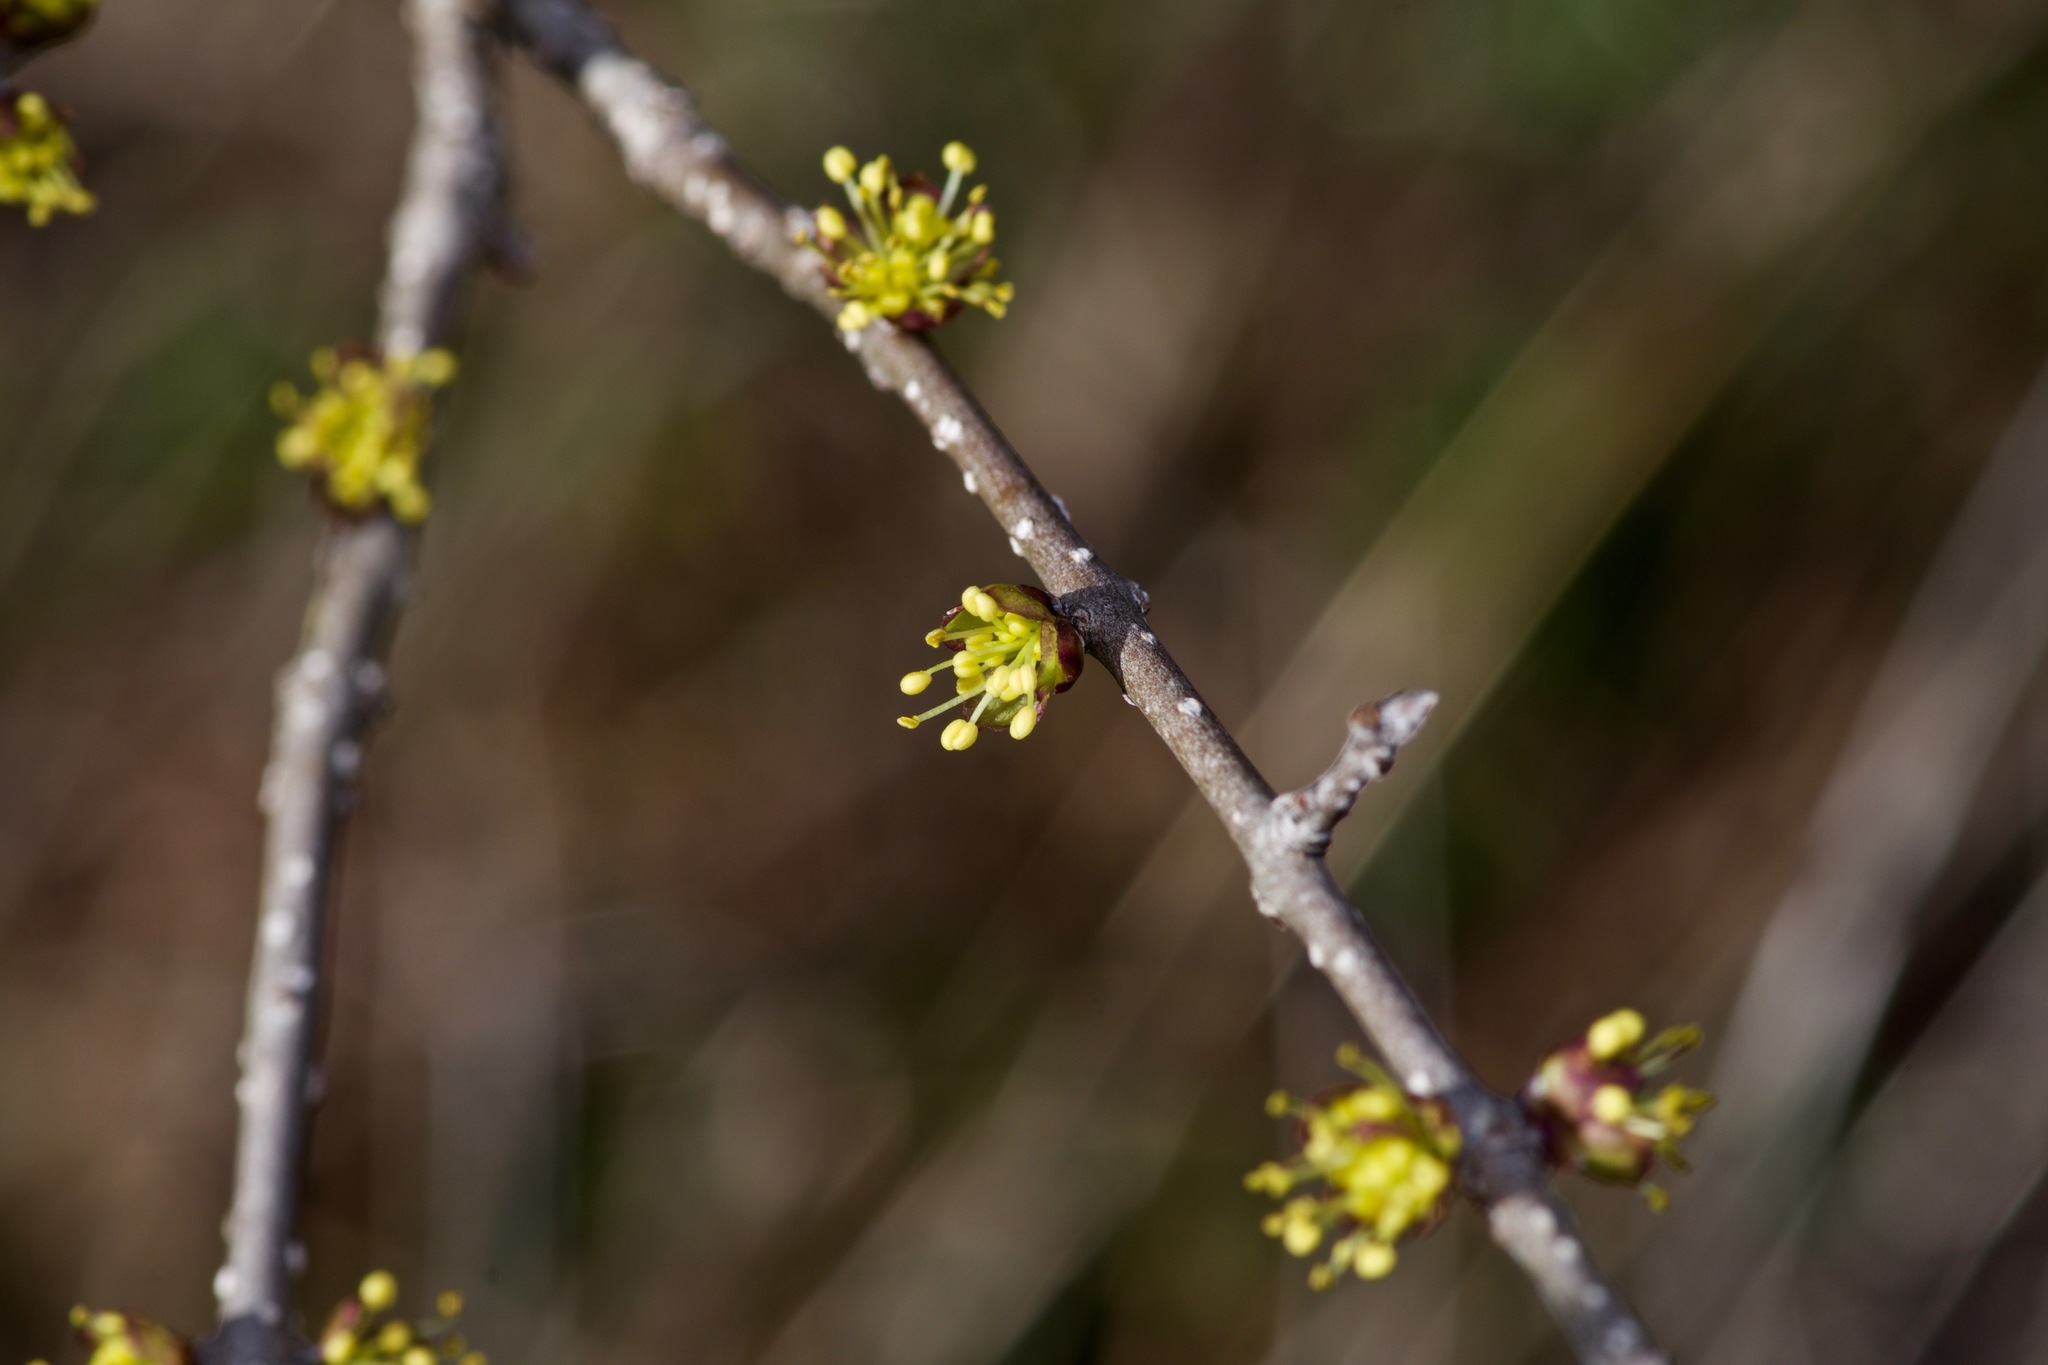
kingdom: Plantae
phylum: Tracheophyta
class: Magnoliopsida
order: Lamiales
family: Oleaceae
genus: Forestiera
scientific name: Forestiera pubescens
